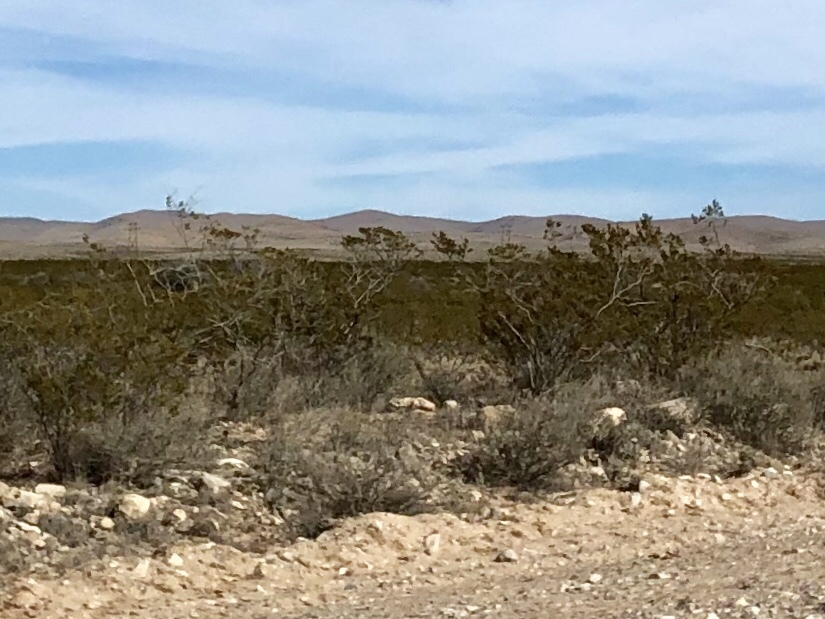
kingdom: Plantae
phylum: Tracheophyta
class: Magnoliopsida
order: Zygophyllales
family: Zygophyllaceae
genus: Larrea
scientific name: Larrea tridentata
